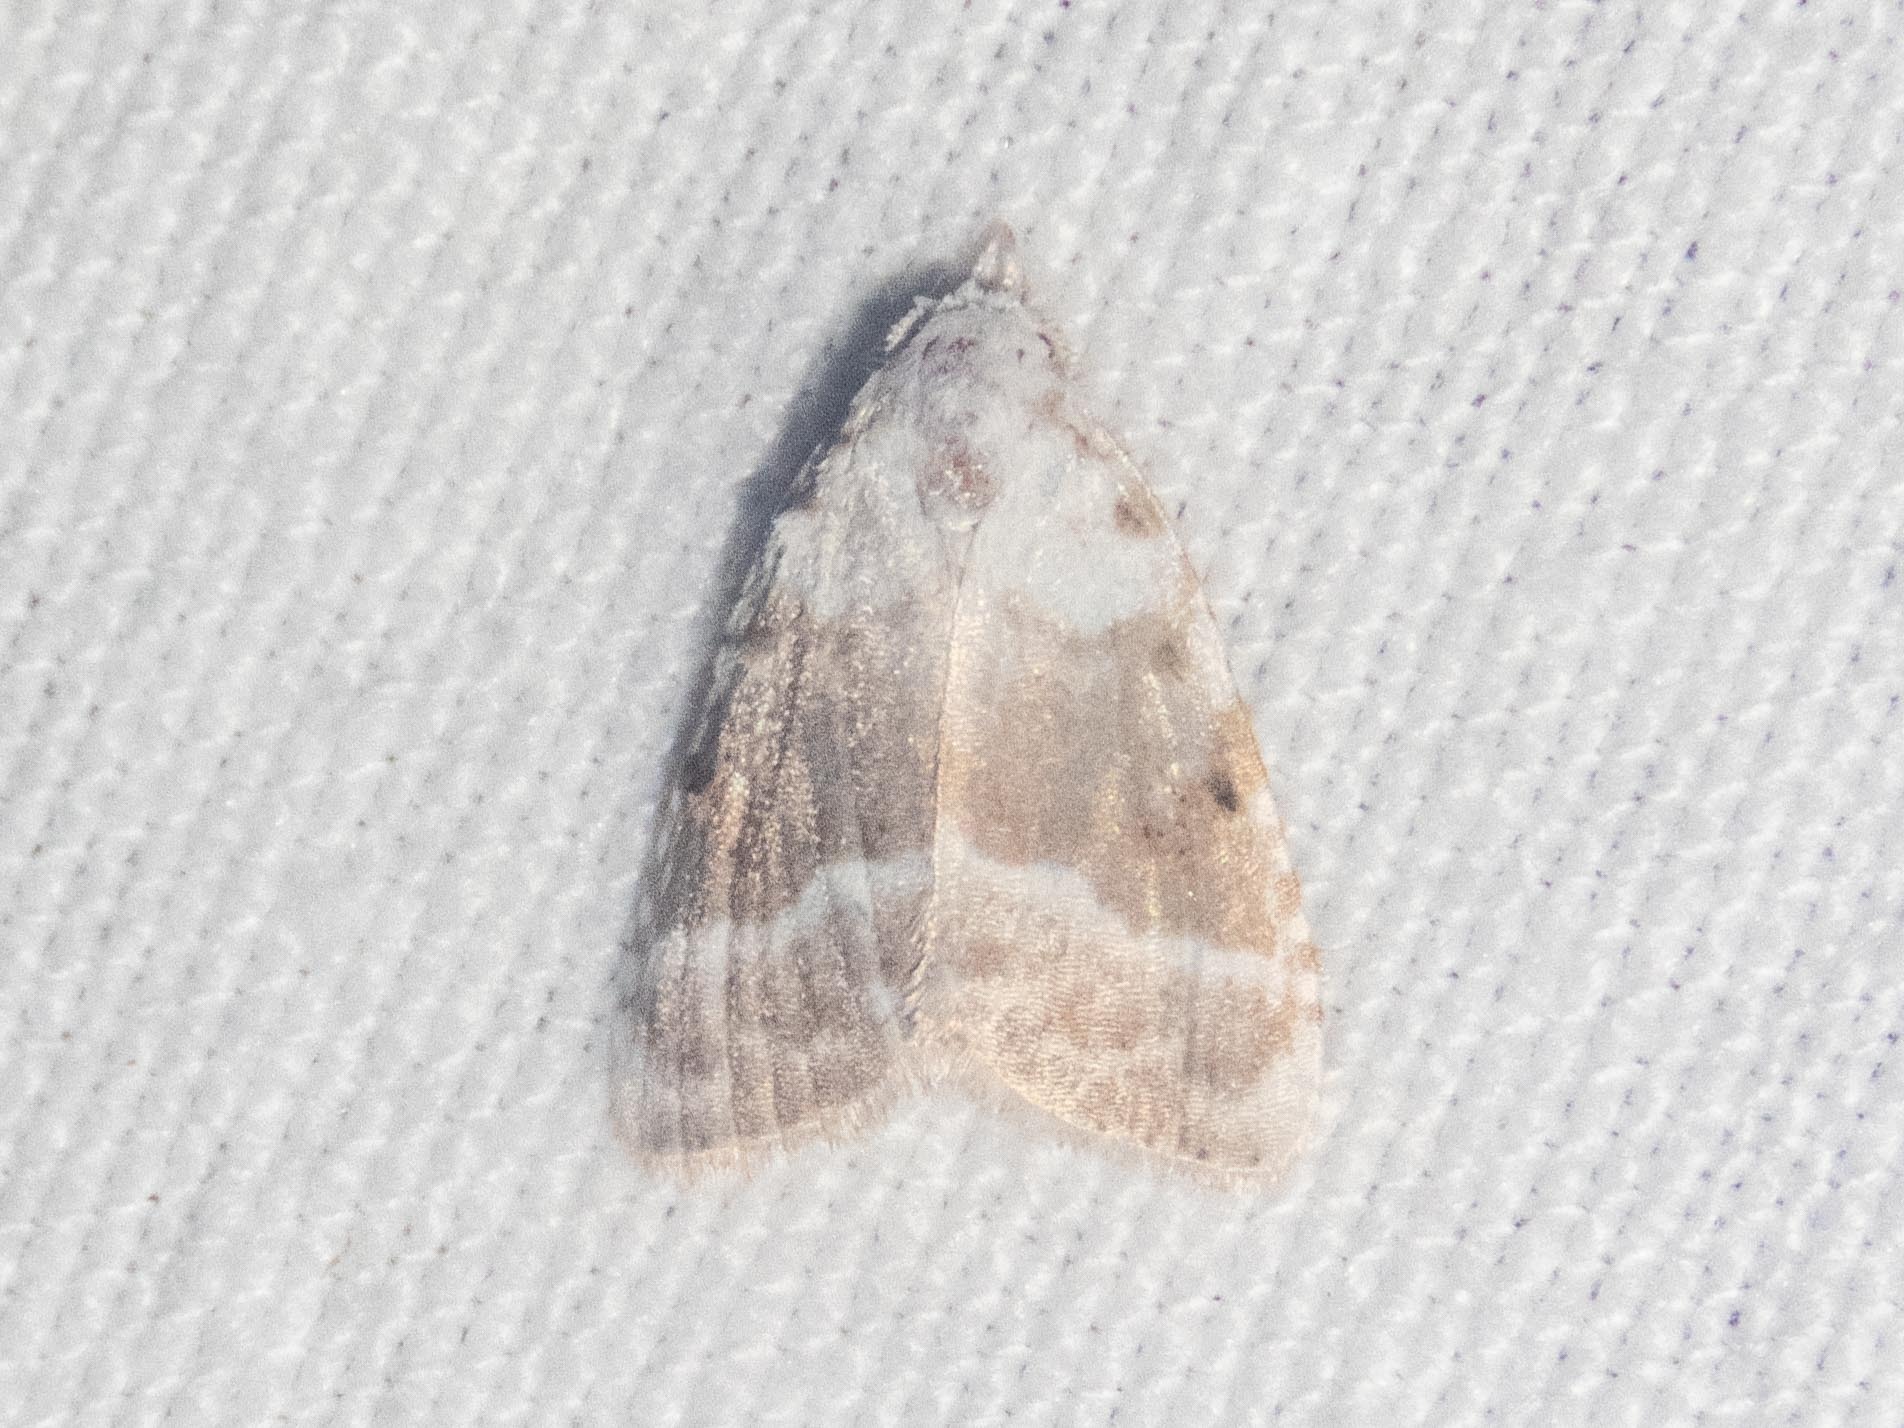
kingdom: Animalia
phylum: Arthropoda
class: Insecta
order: Lepidoptera
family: Nolidae
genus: Meganola
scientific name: Meganola albula
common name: Kent black arches
